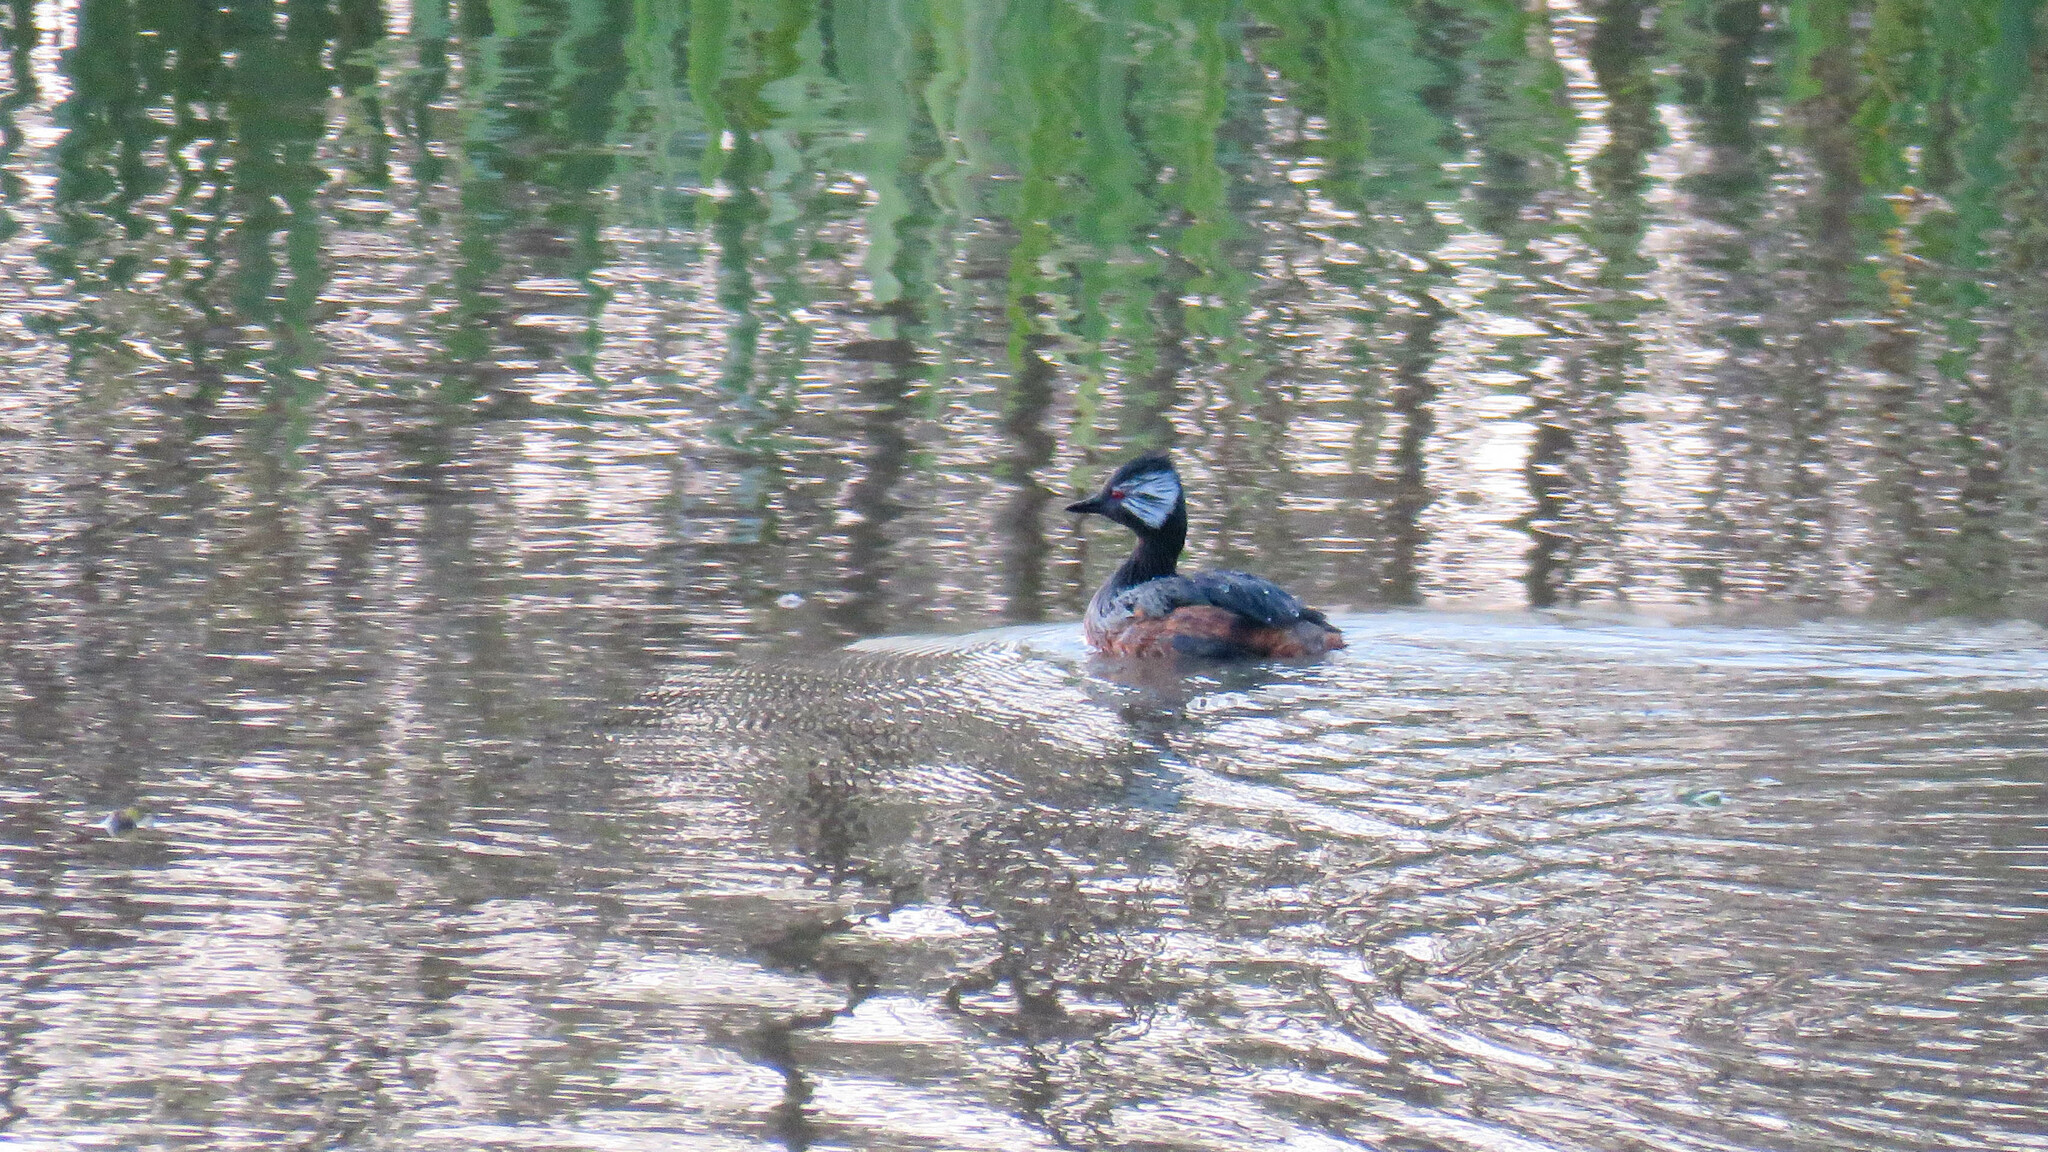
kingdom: Animalia
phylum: Chordata
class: Aves
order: Podicipediformes
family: Podicipedidae
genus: Rollandia
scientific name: Rollandia rolland
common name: White-tufted grebe
